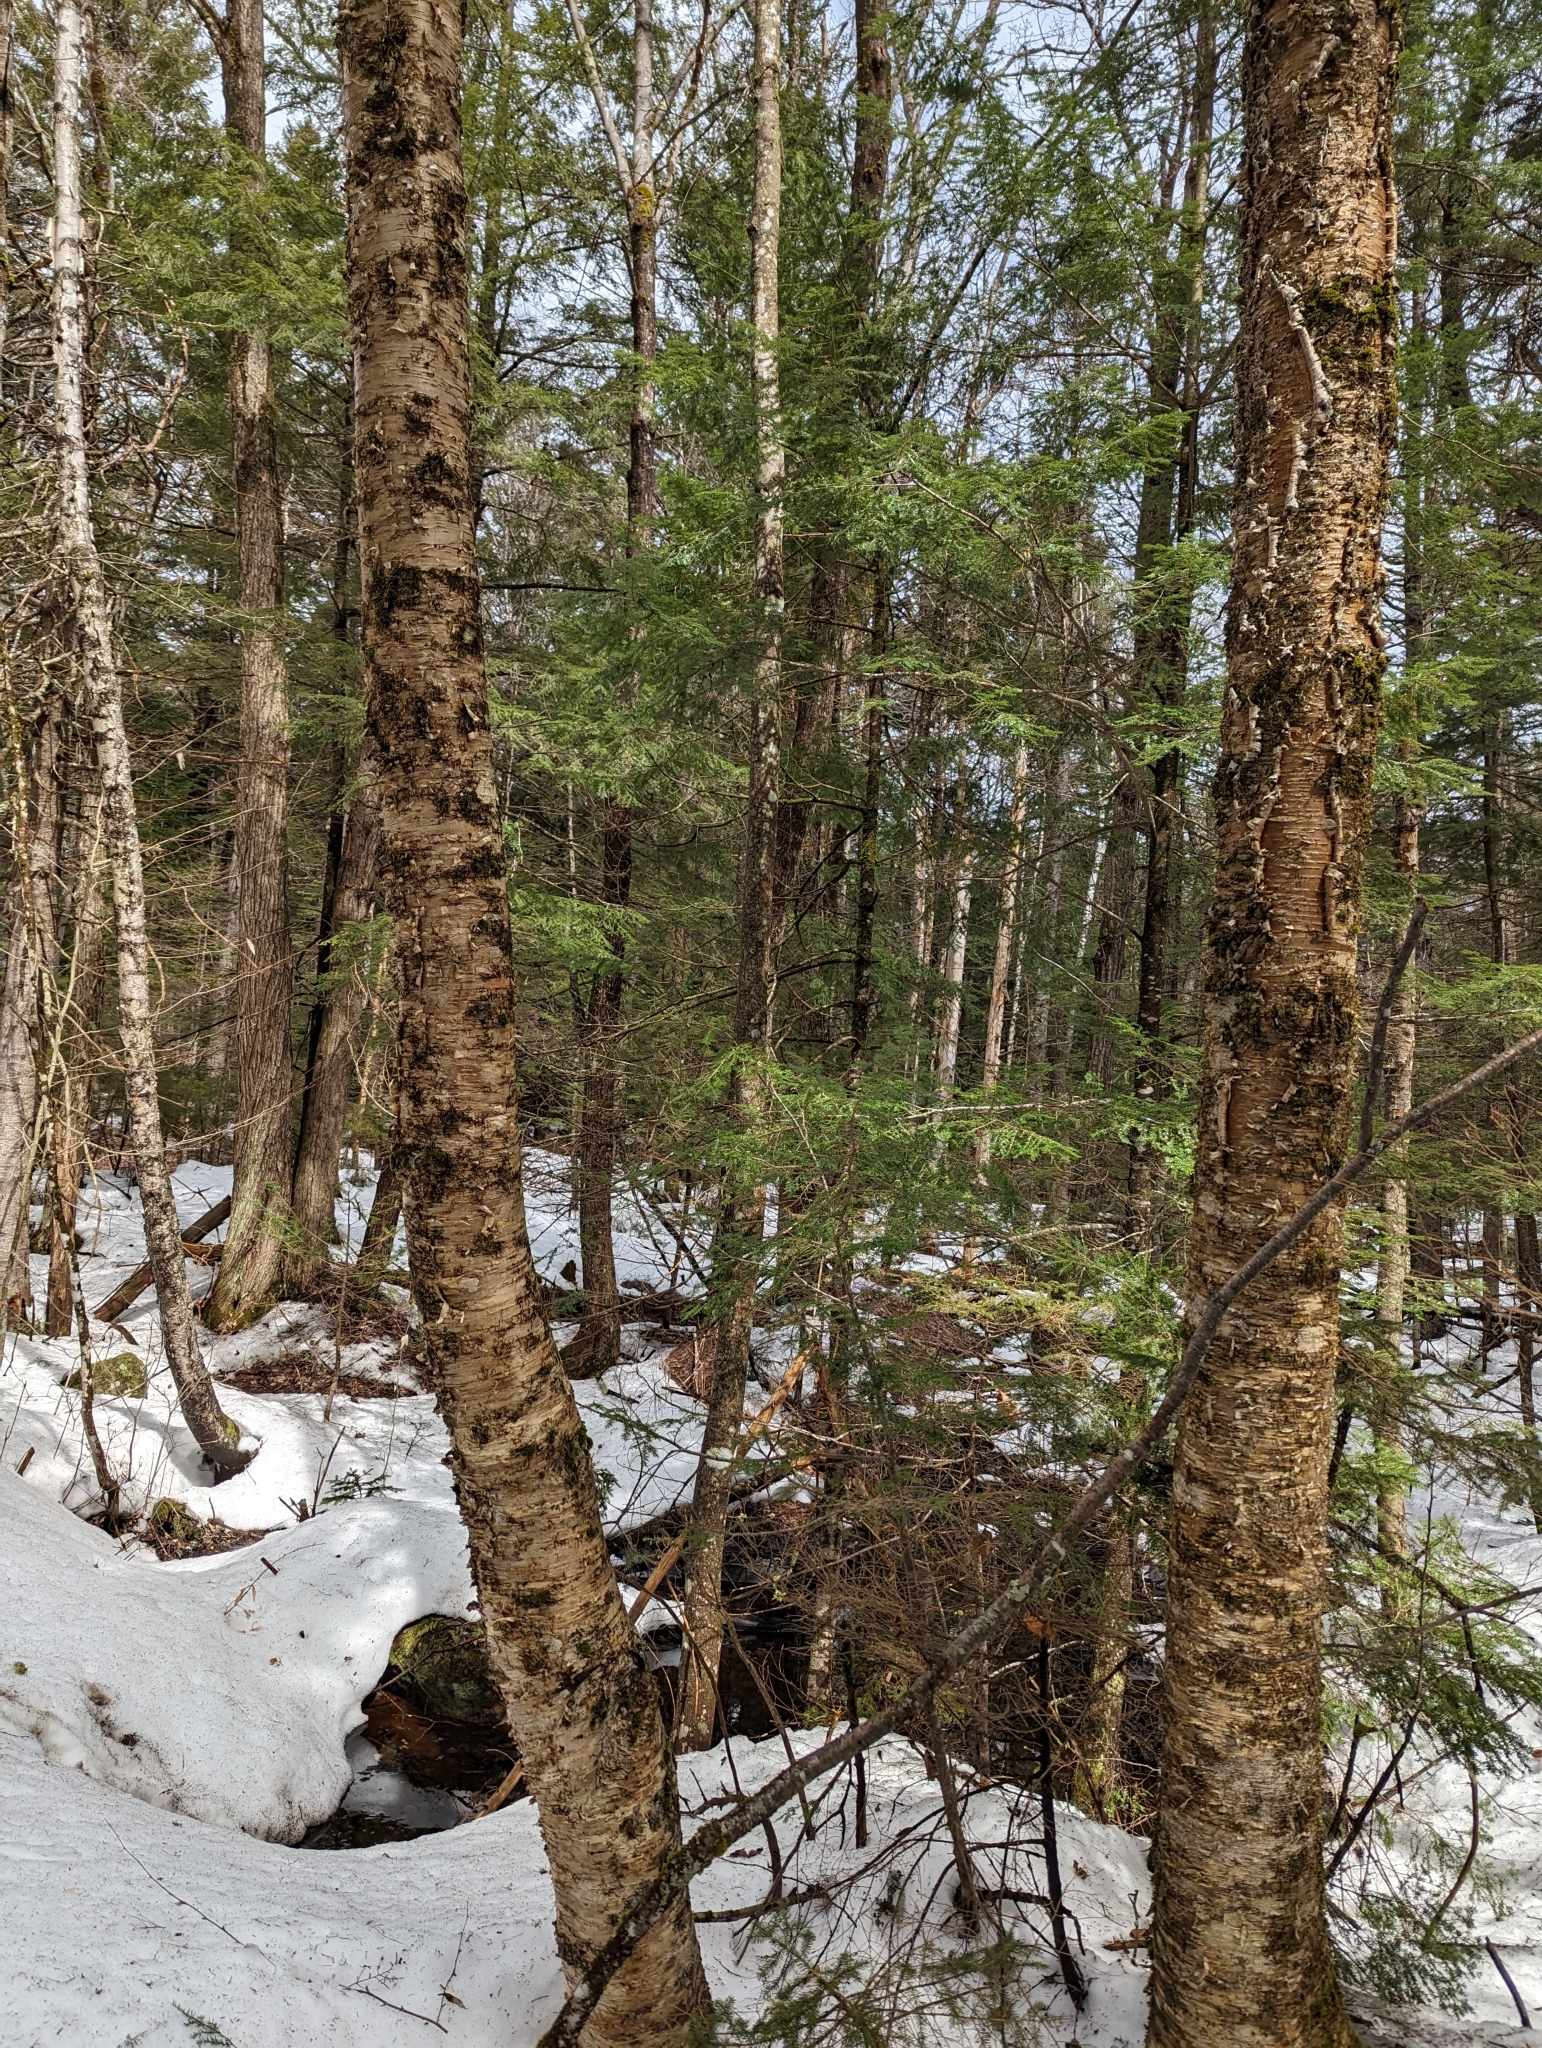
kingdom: Plantae
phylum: Tracheophyta
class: Magnoliopsida
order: Fagales
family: Betulaceae
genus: Betula
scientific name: Betula alleghaniensis
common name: Yellow birch
